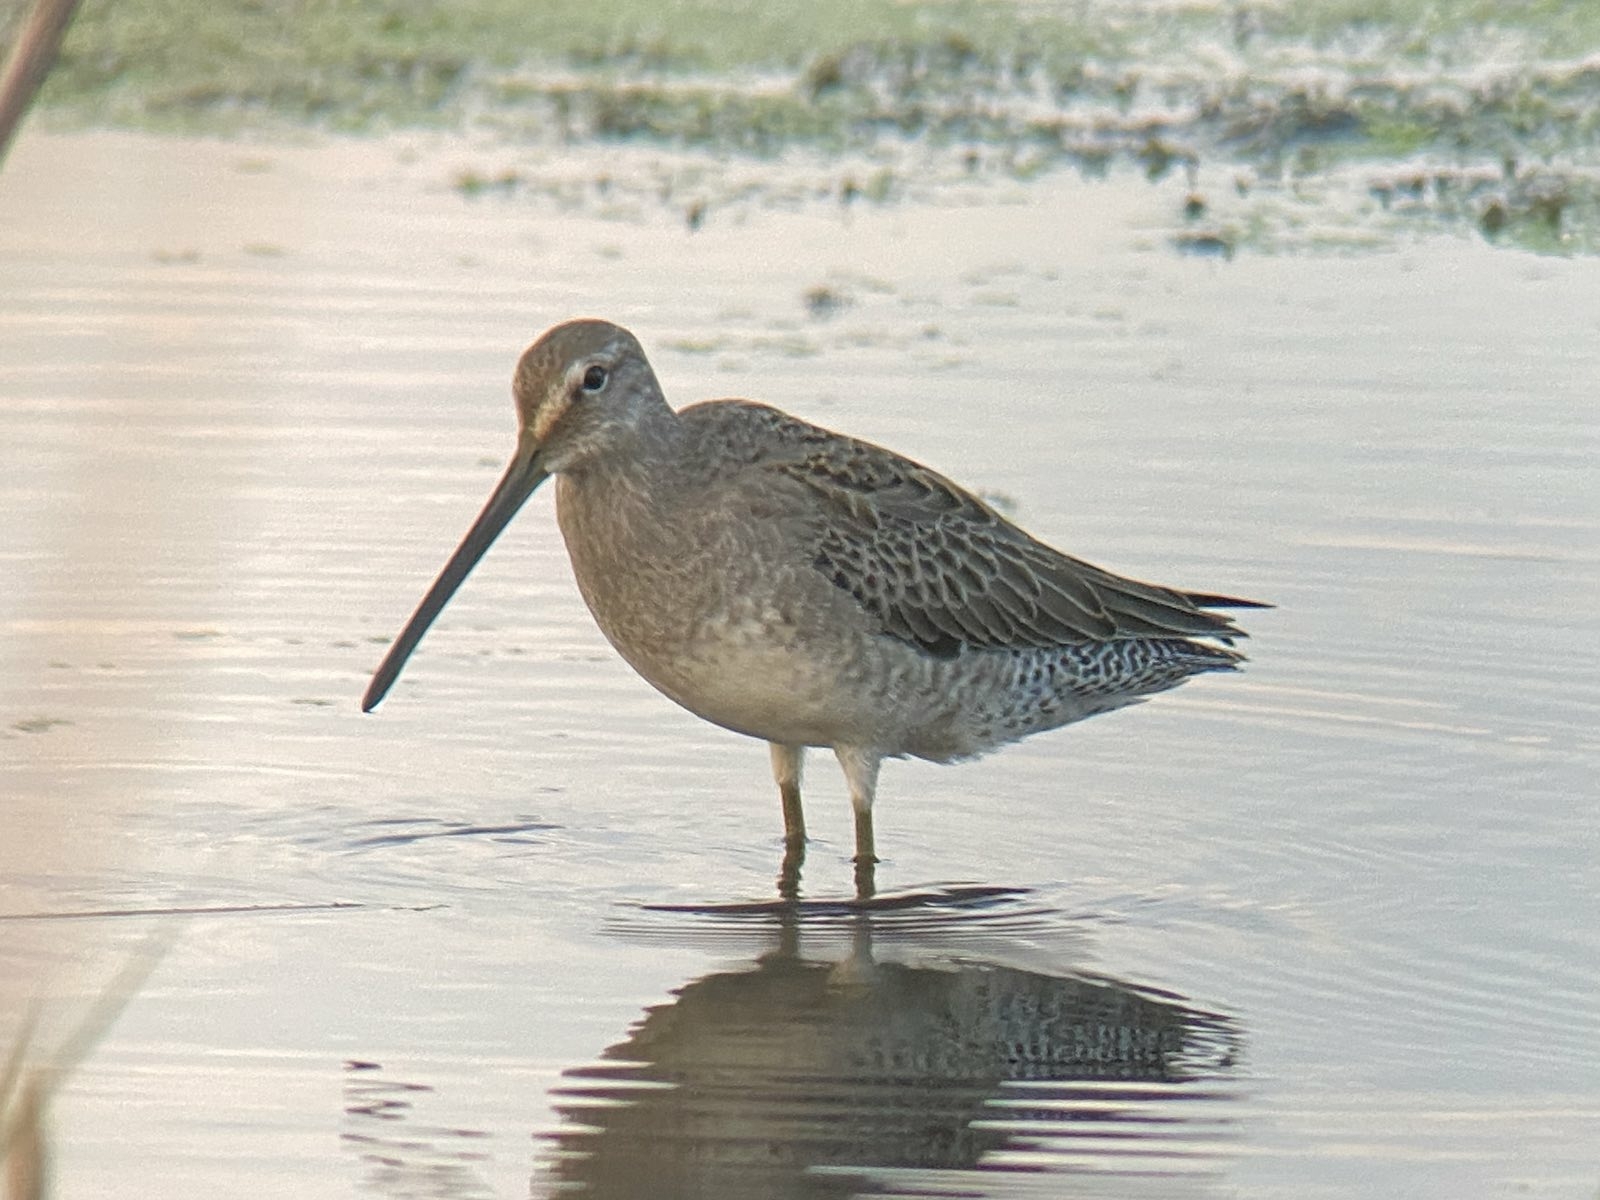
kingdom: Animalia
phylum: Chordata
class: Aves
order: Charadriiformes
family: Scolopacidae
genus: Limnodromus
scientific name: Limnodromus scolopaceus
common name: Long-billed dowitcher
